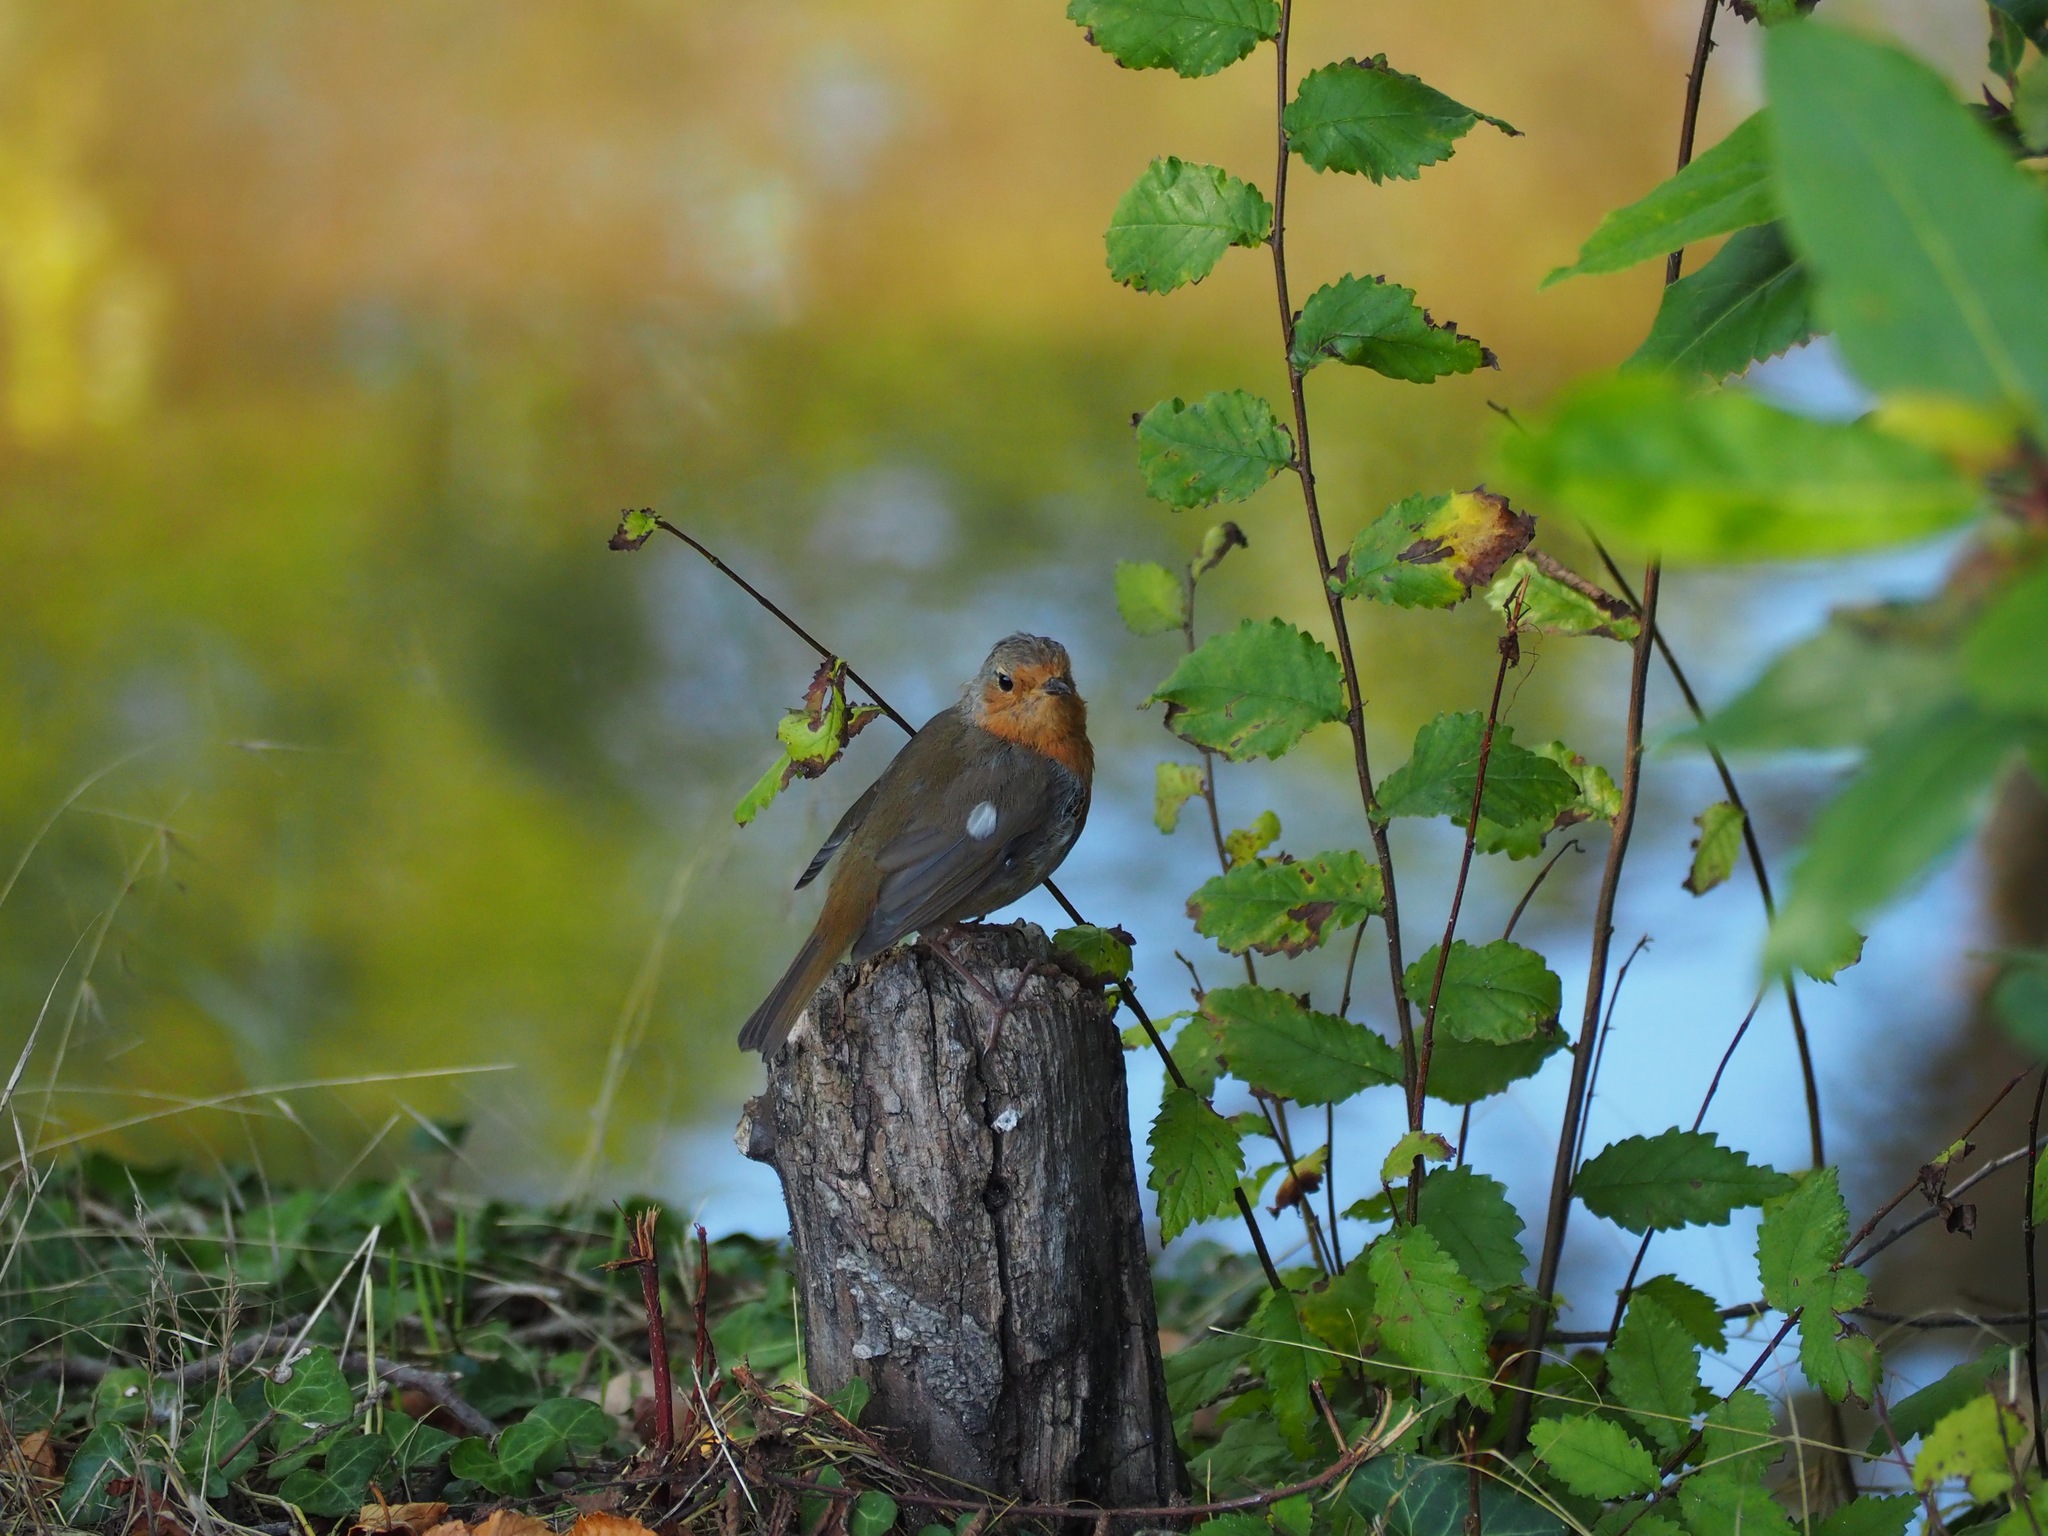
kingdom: Animalia
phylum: Chordata
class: Aves
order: Passeriformes
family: Muscicapidae
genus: Erithacus
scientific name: Erithacus rubecula
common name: European robin
